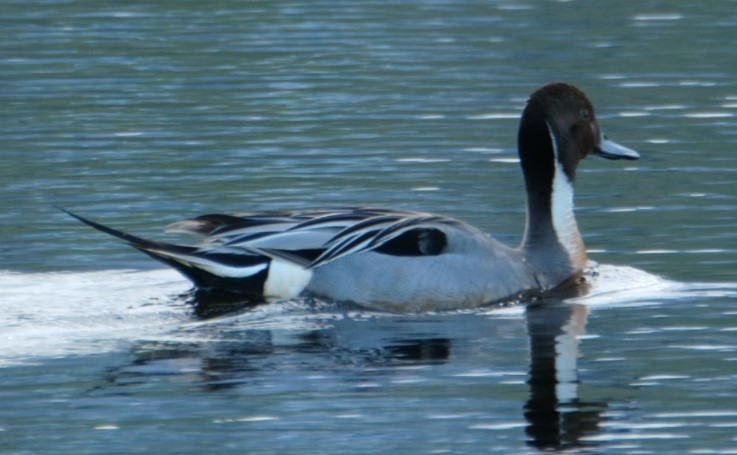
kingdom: Animalia
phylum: Chordata
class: Aves
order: Anseriformes
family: Anatidae
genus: Anas
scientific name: Anas acuta
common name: Northern pintail
